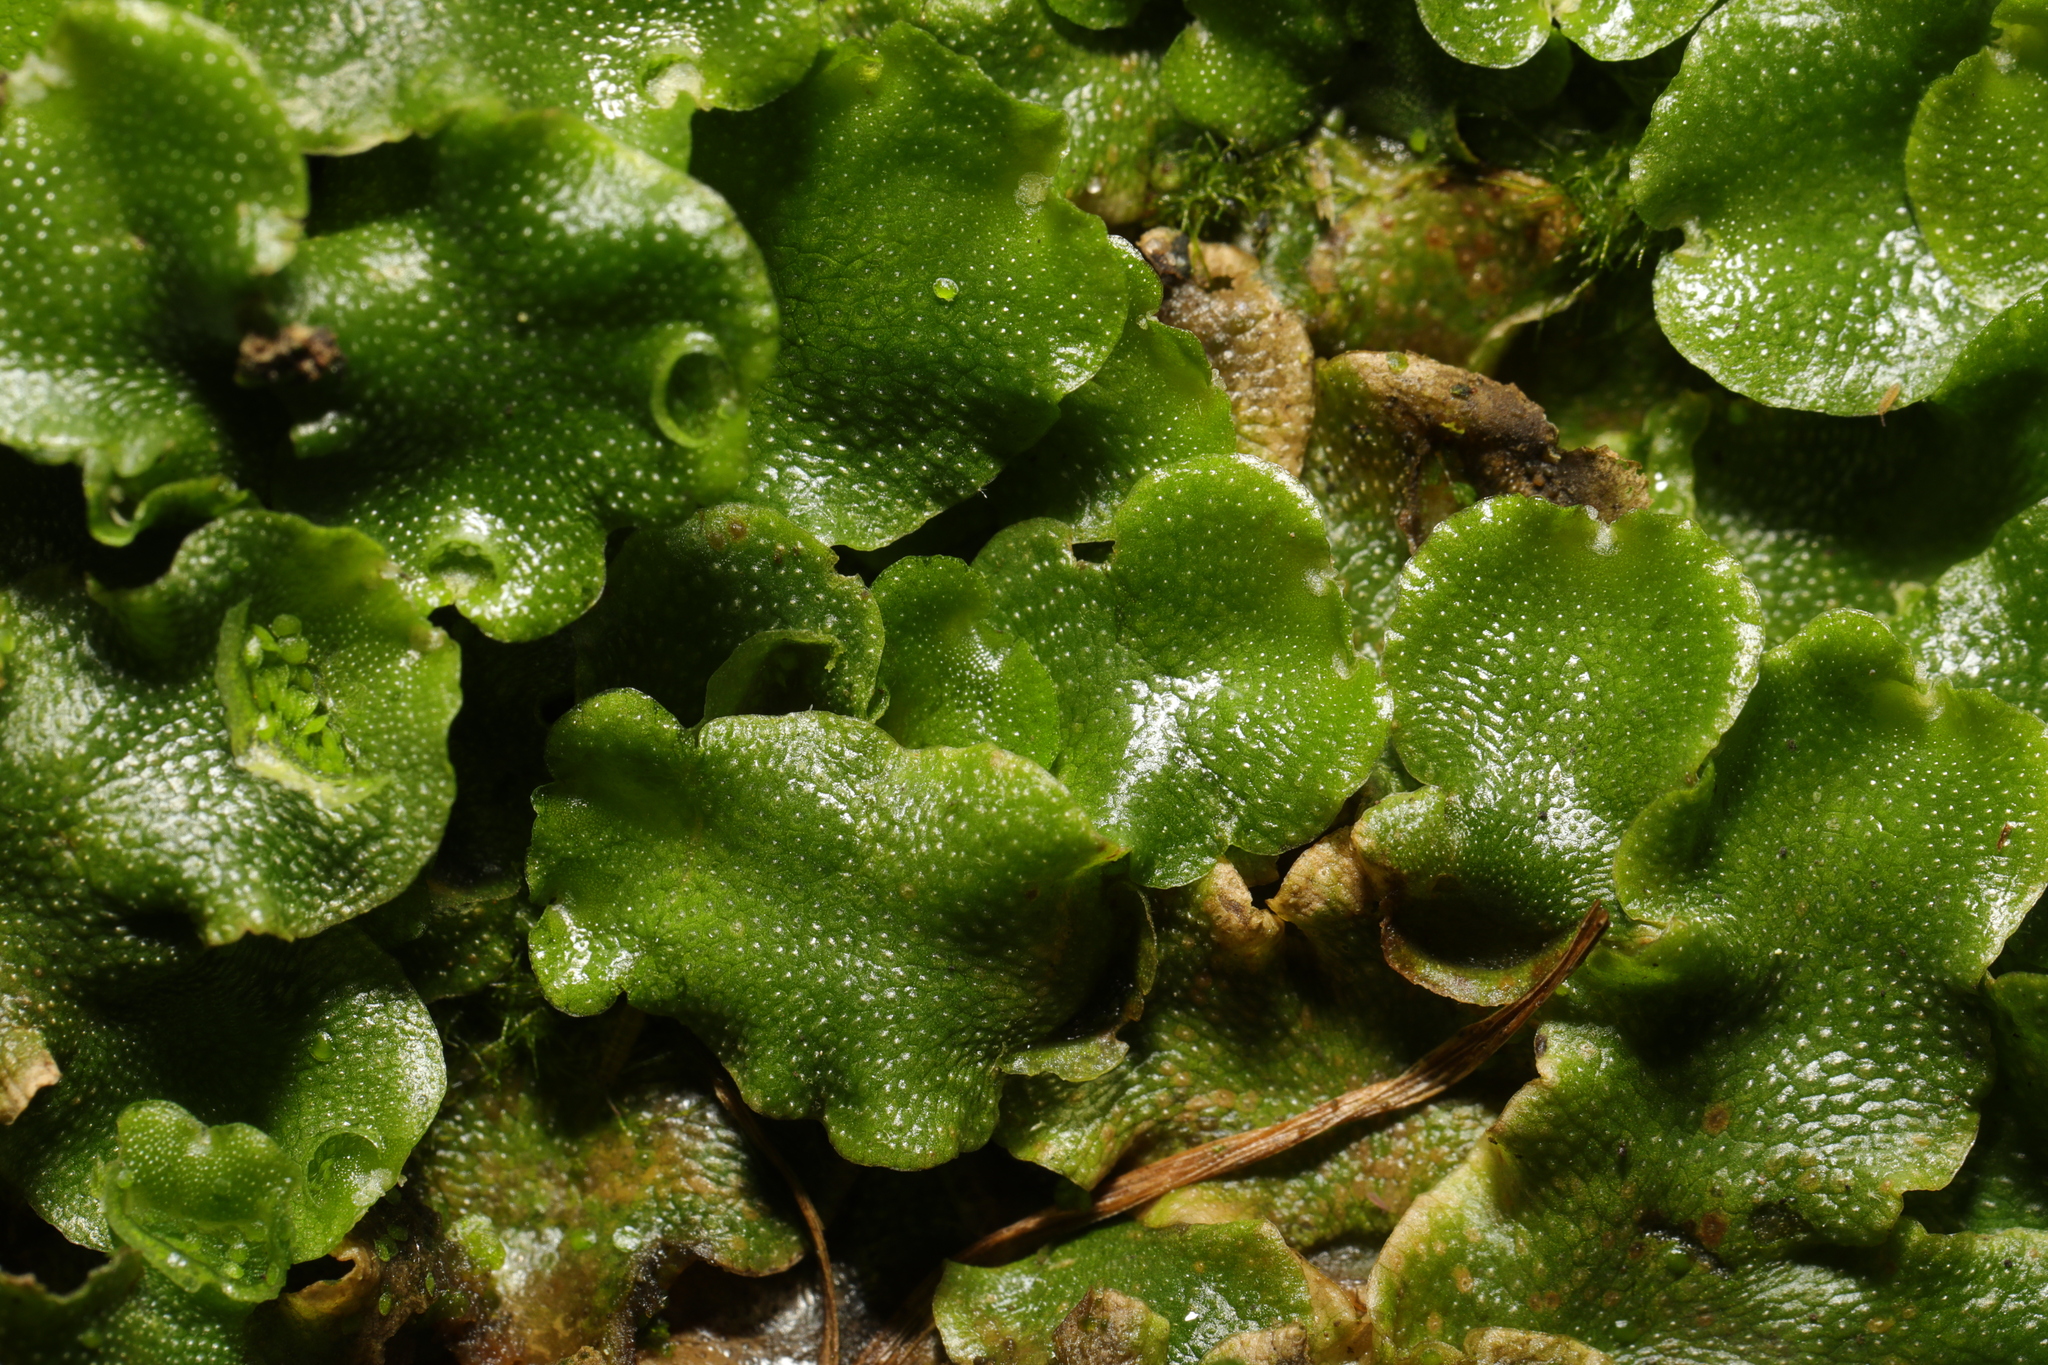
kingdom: Plantae
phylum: Marchantiophyta
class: Marchantiopsida
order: Lunulariales
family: Lunulariaceae
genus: Lunularia
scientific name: Lunularia cruciata
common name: Crescent-cup liverwort
